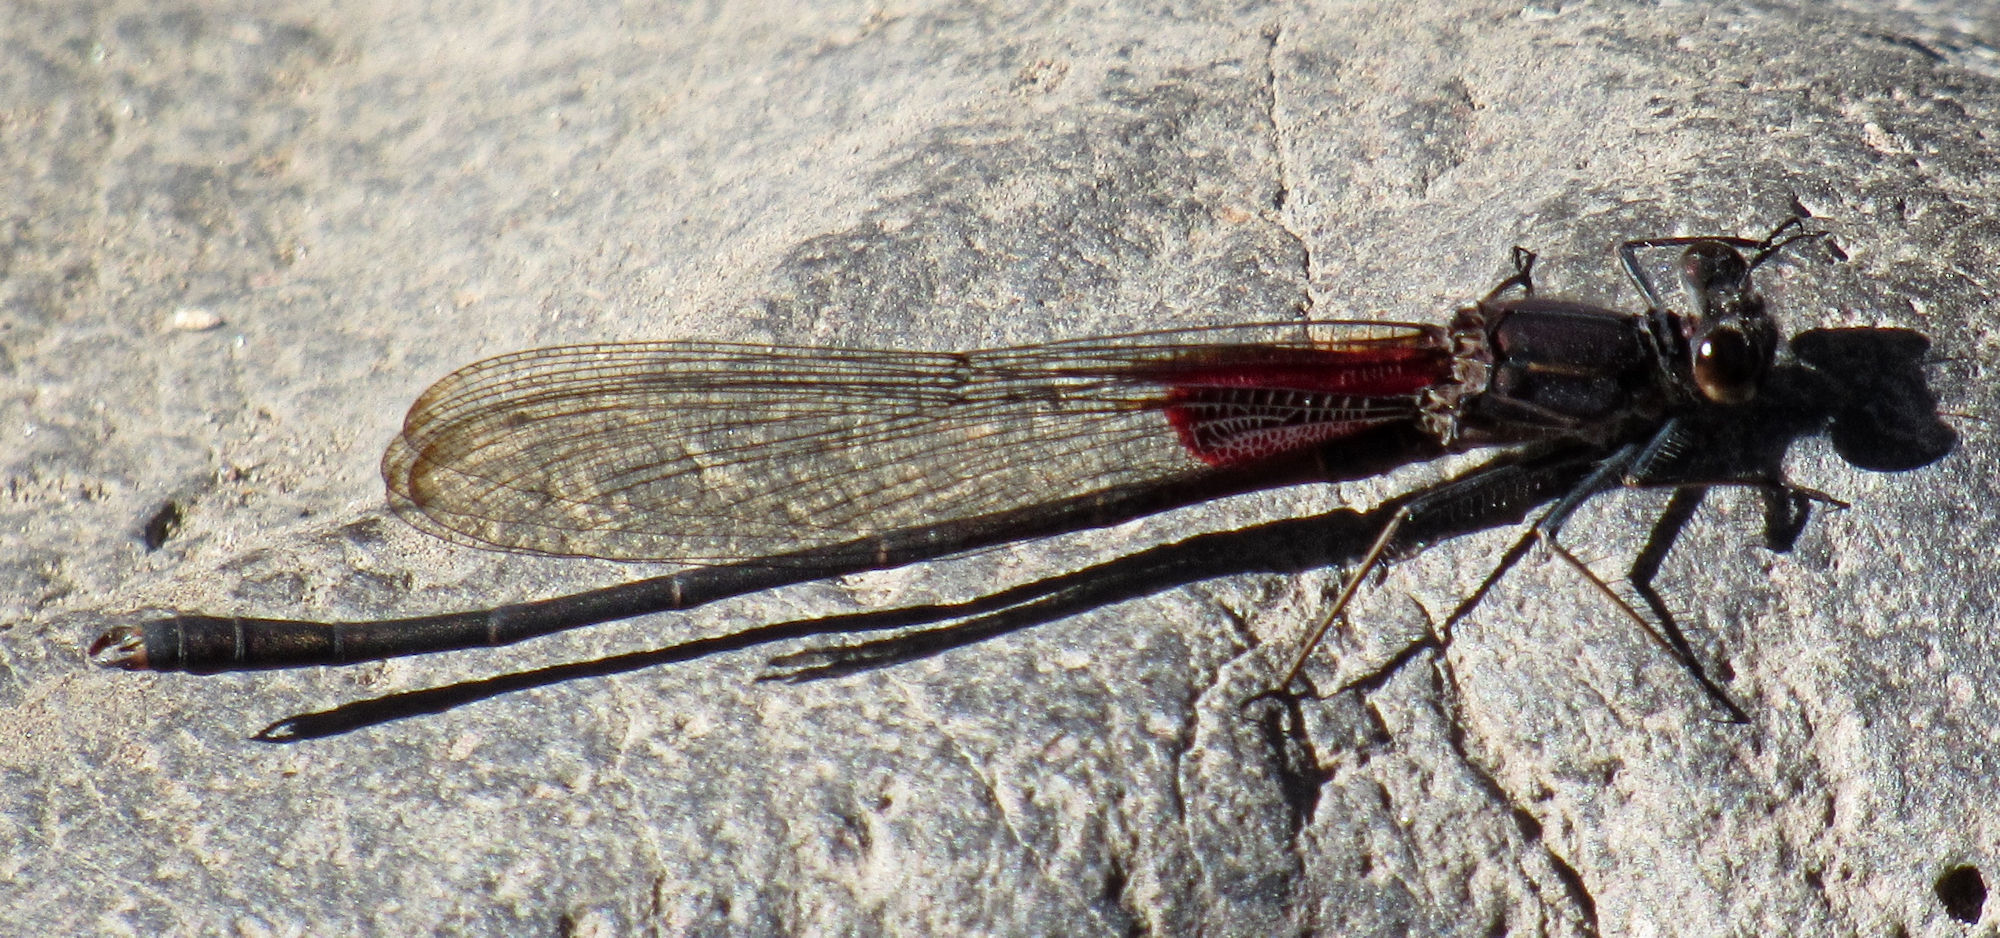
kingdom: Animalia
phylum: Arthropoda
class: Insecta
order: Odonata
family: Calopterygidae
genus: Hetaerina
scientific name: Hetaerina vulnerata
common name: Canyon rubyspot
